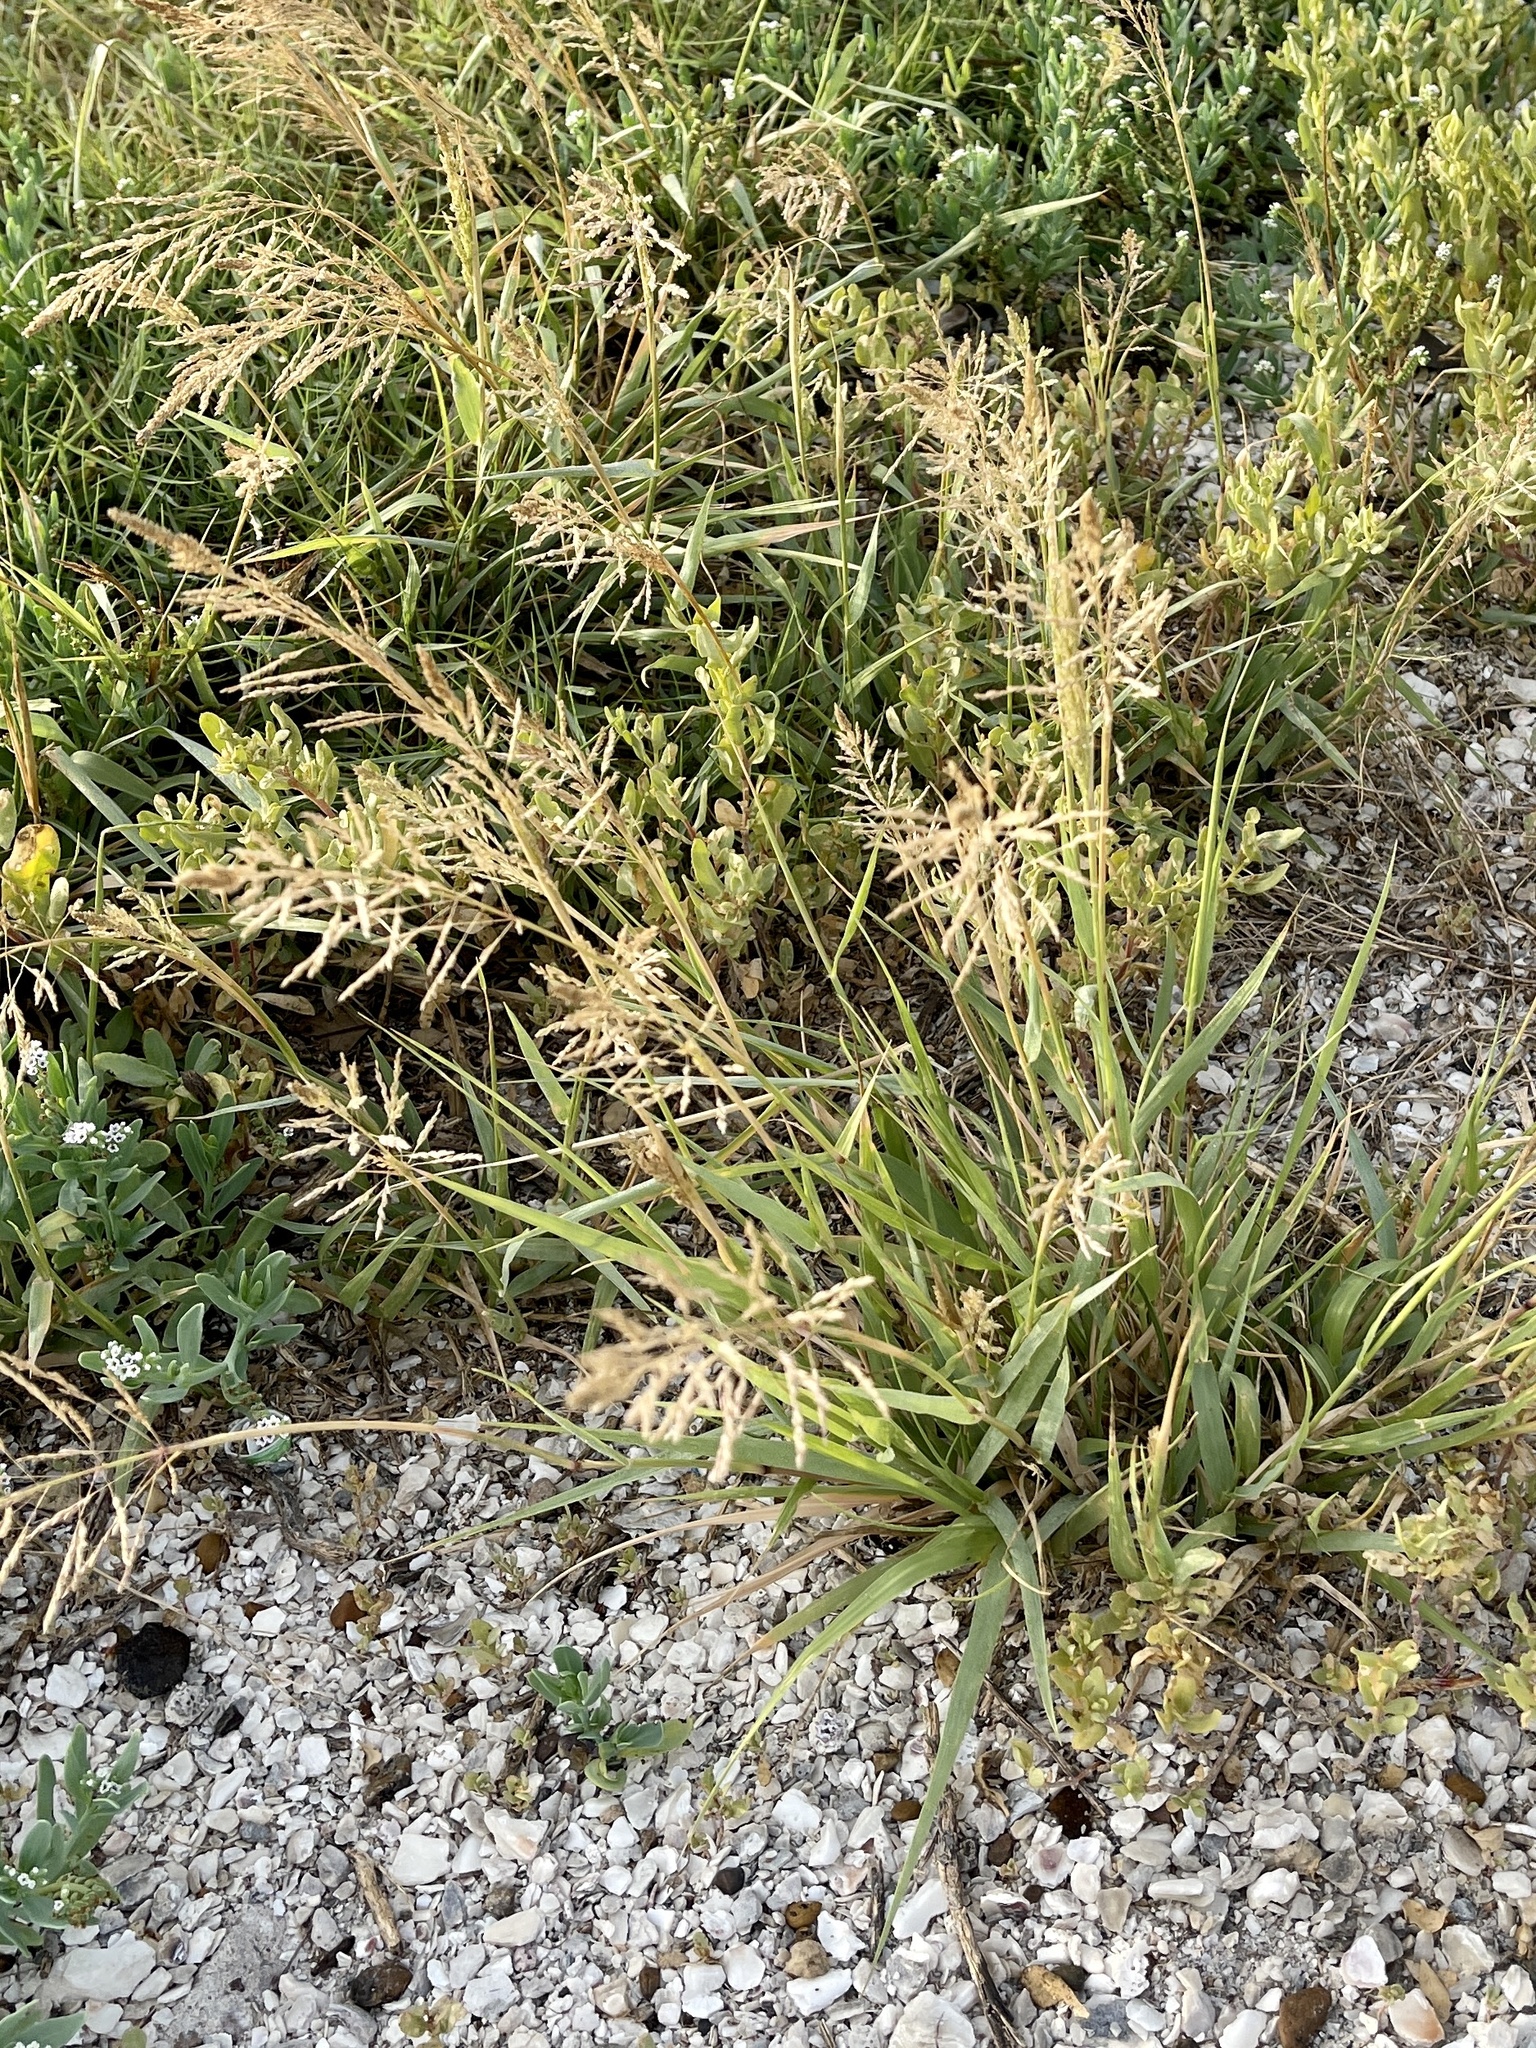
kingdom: Plantae
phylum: Tracheophyta
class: Liliopsida
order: Poales
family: Poaceae
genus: Sporobolus
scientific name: Sporobolus pyramidatus
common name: Whorled dropseed
